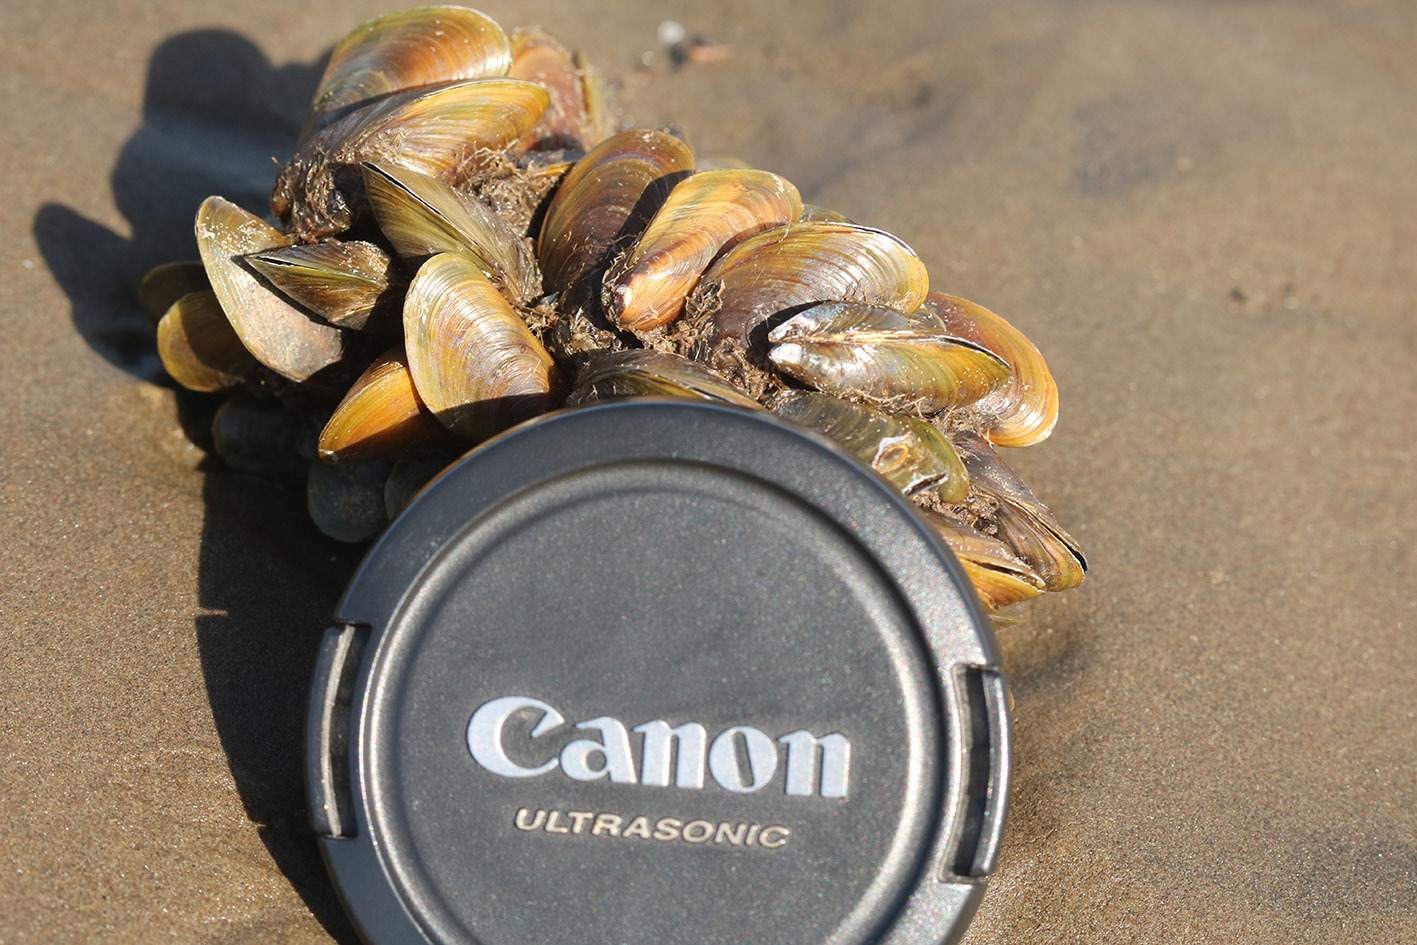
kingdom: Animalia
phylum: Mollusca
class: Bivalvia
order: Mytilida
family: Mytilidae
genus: Limnoperna
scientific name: Limnoperna fortunei
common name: Golden mussel
